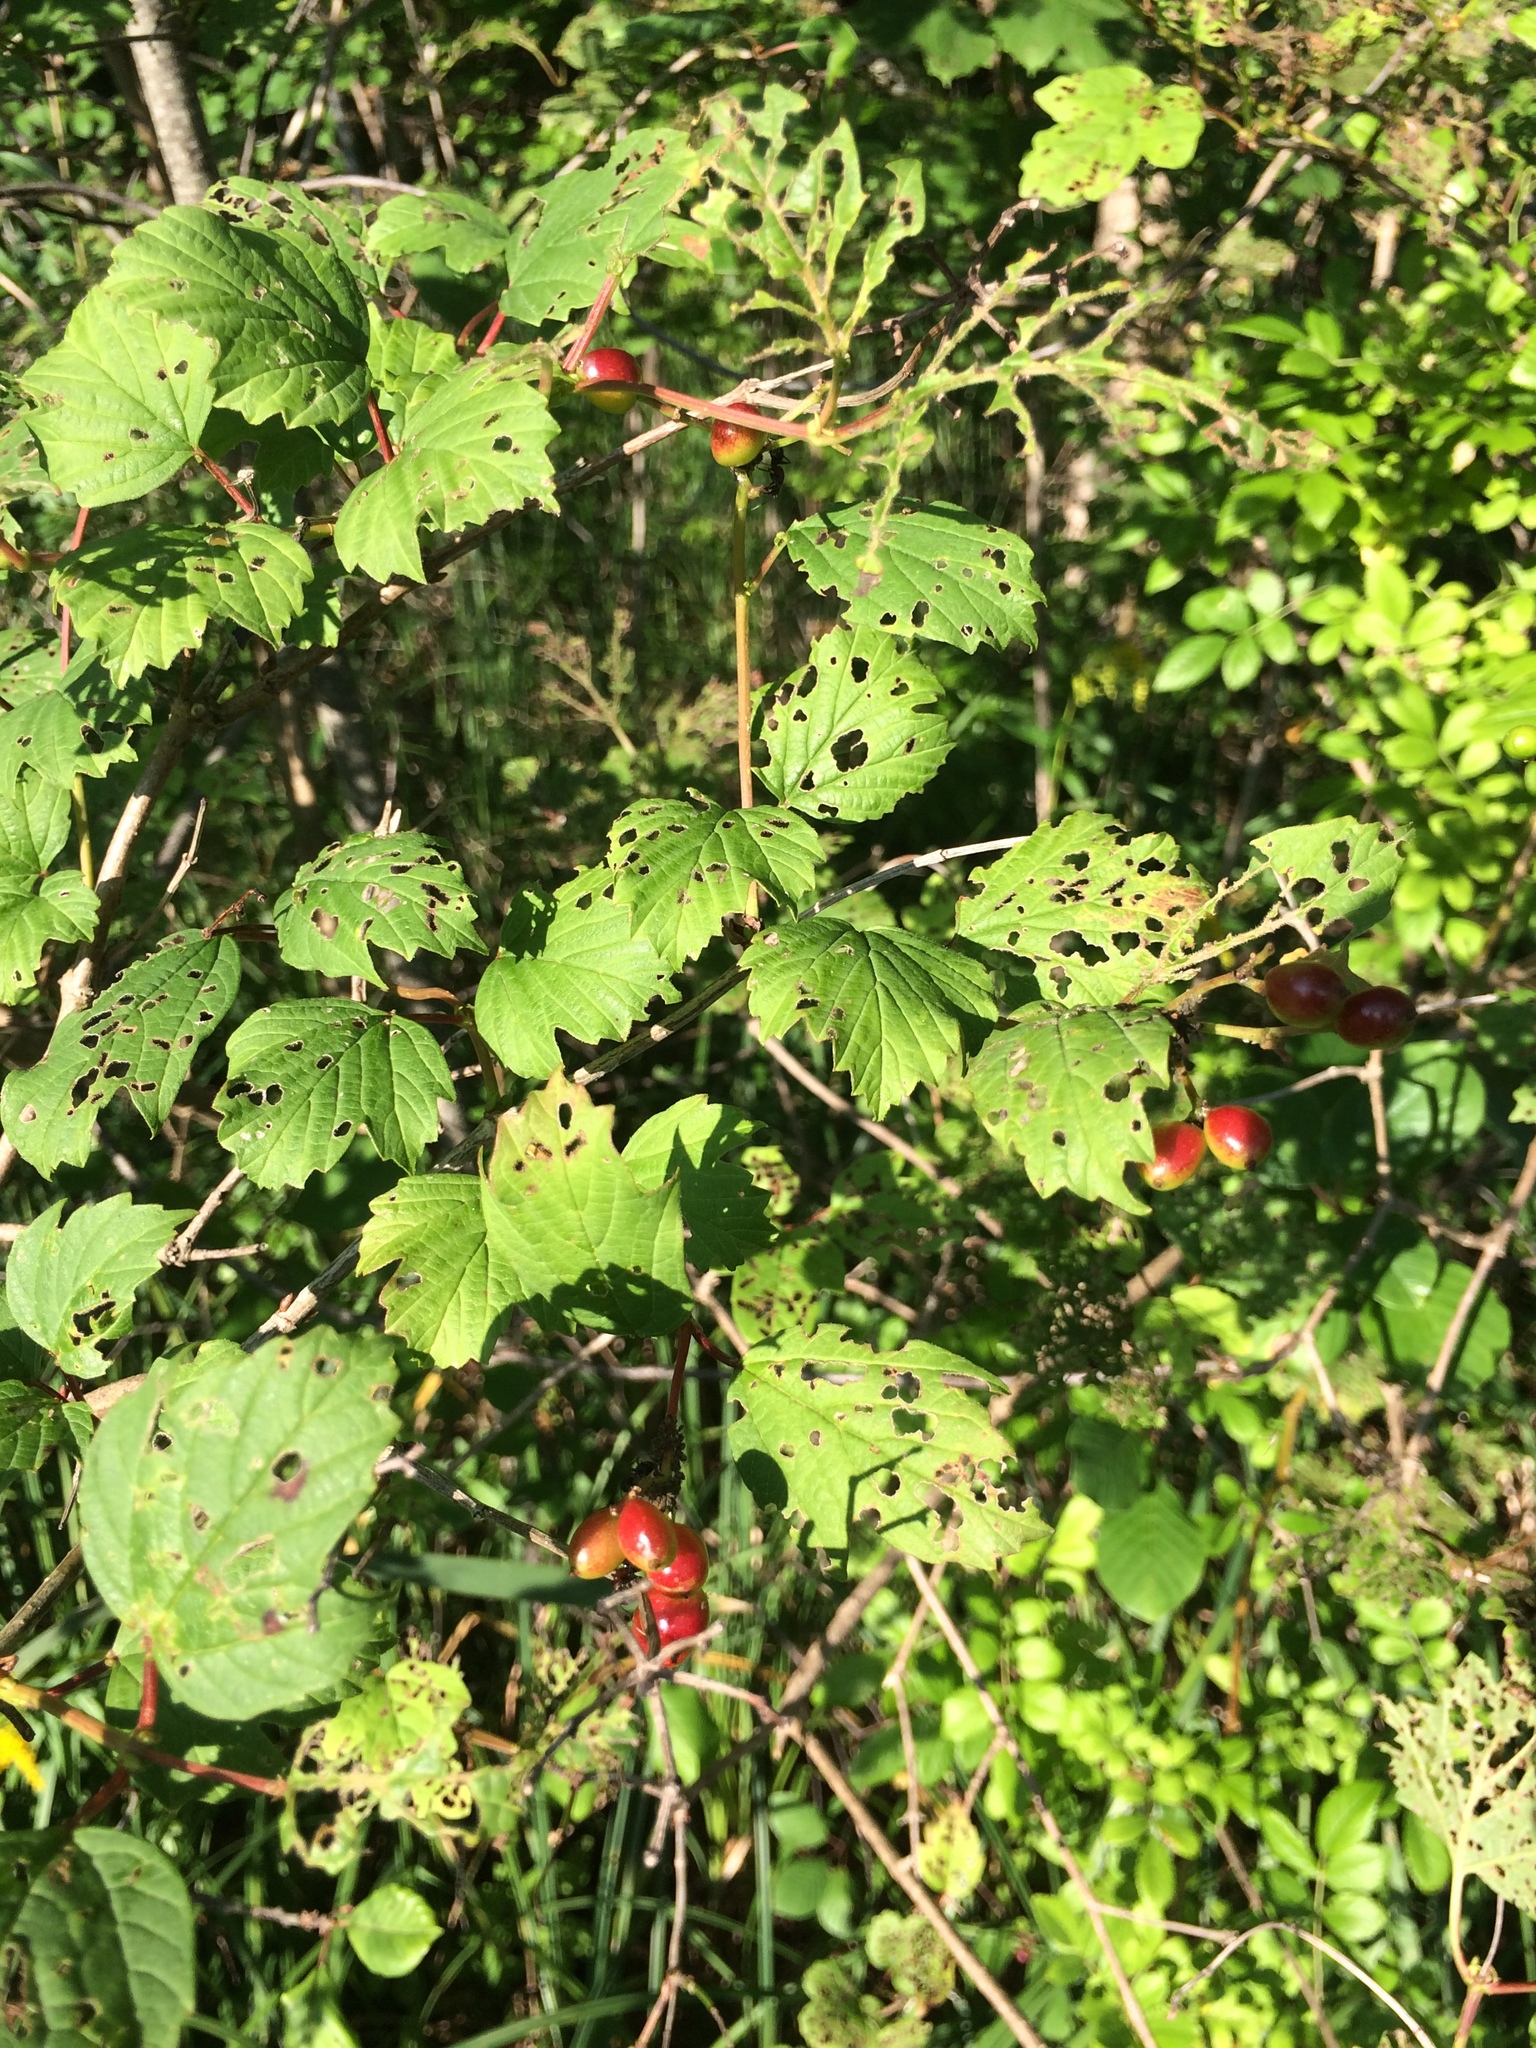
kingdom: Plantae
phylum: Tracheophyta
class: Magnoliopsida
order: Dipsacales
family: Viburnaceae
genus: Viburnum
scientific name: Viburnum trilobum
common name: American cranberrybush
